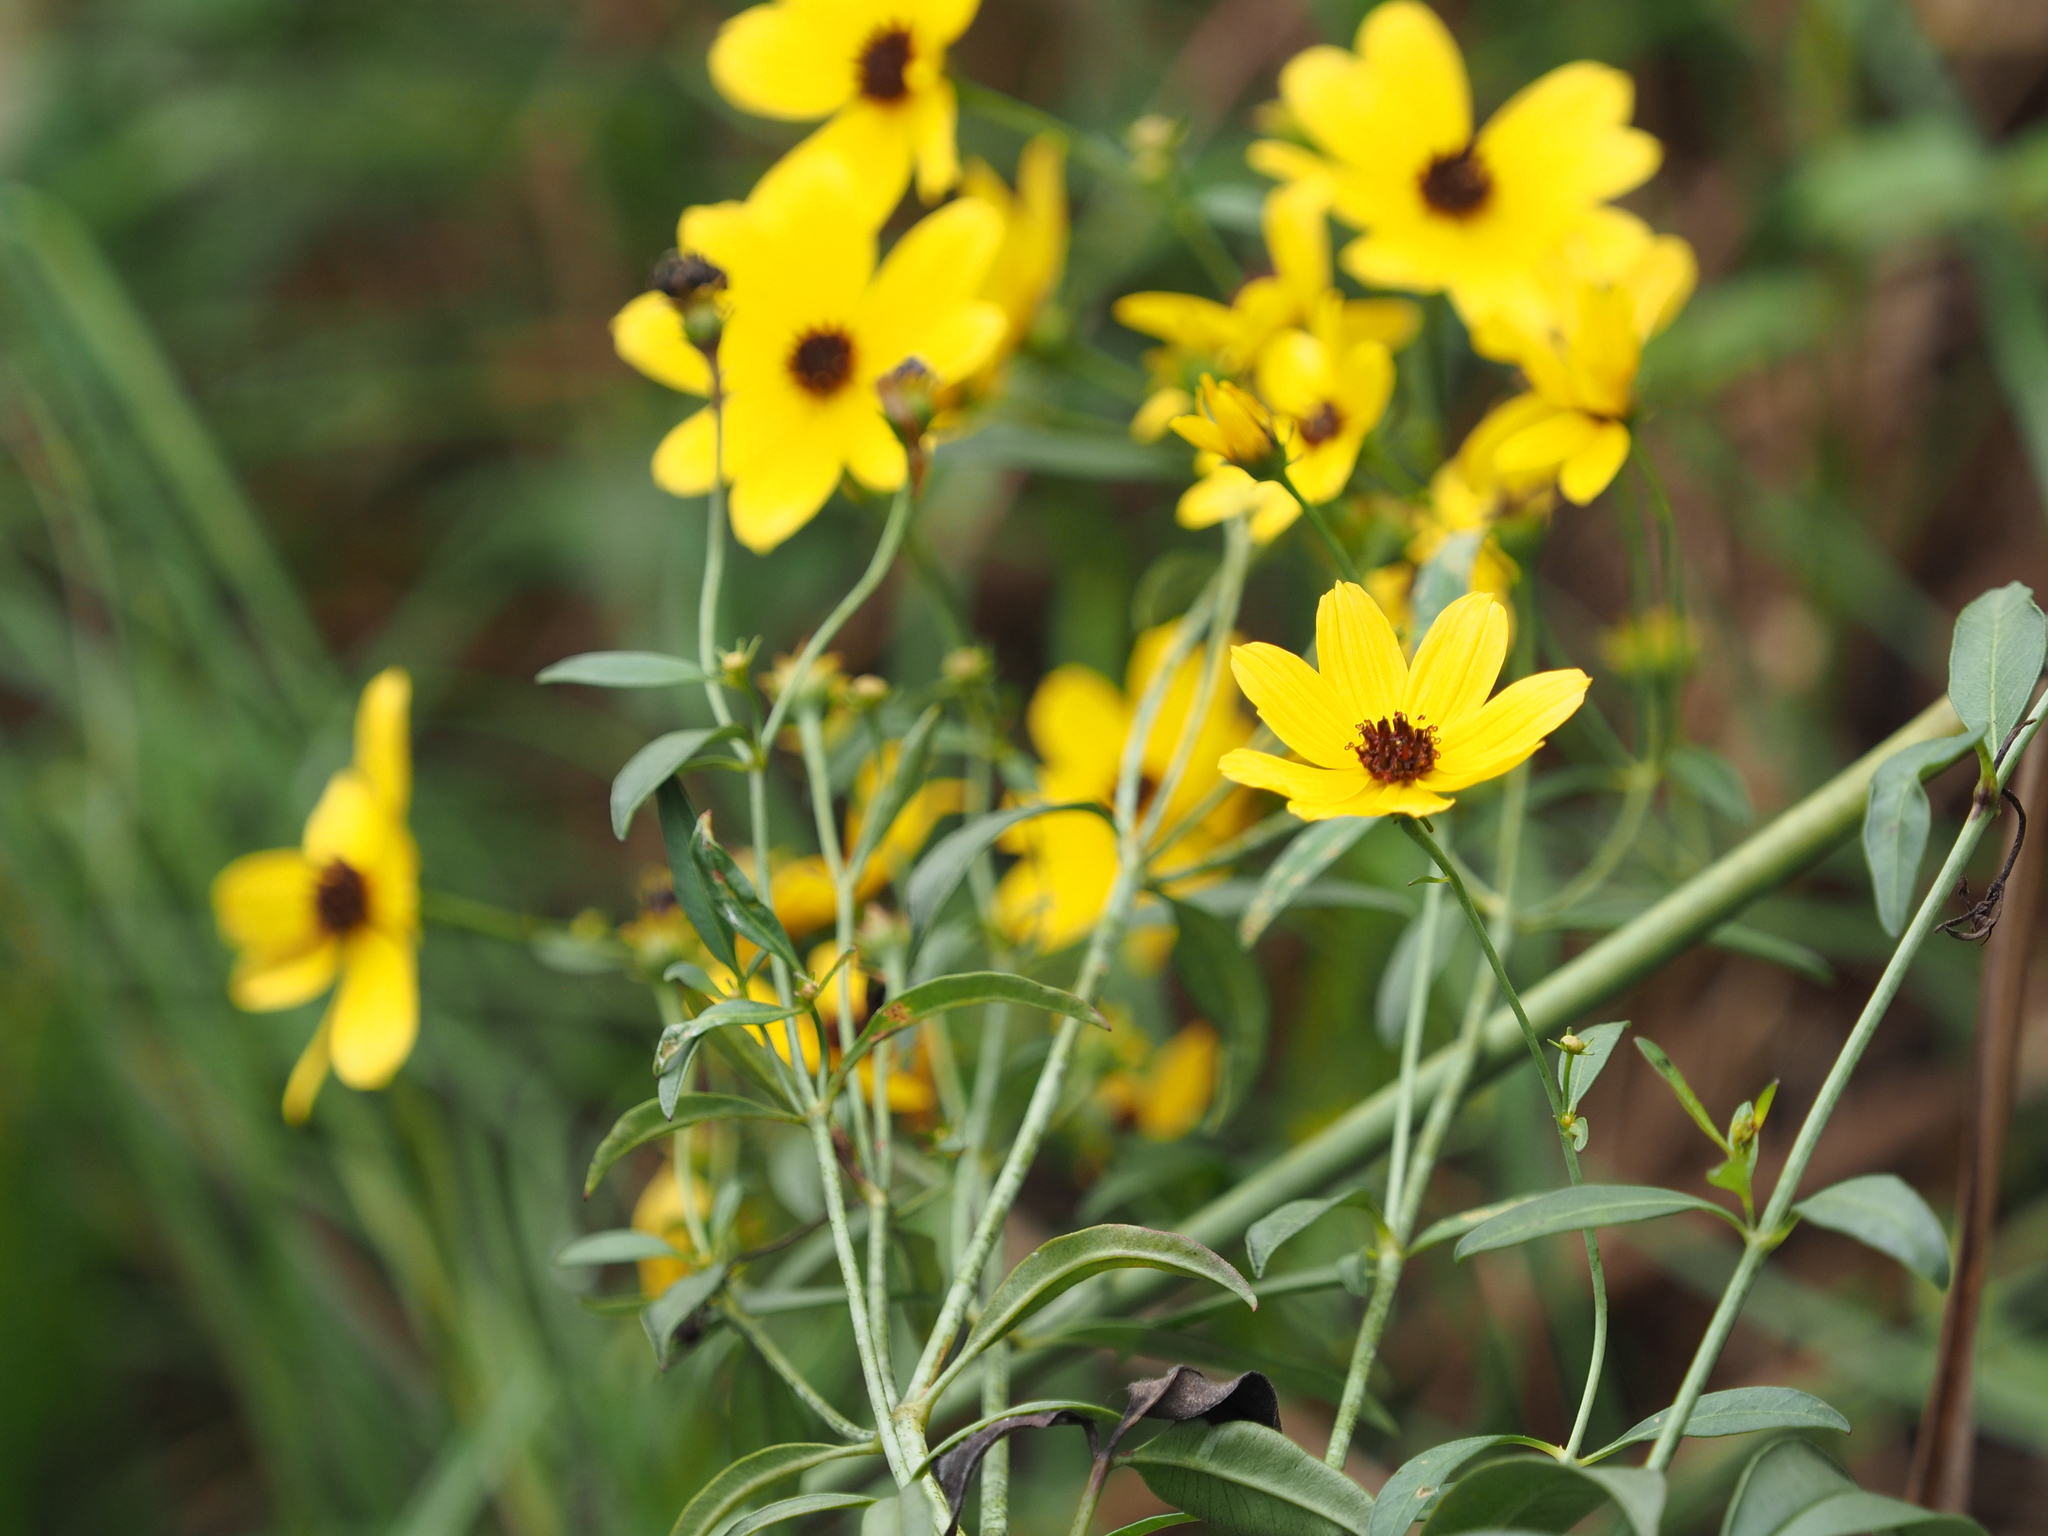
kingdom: Plantae
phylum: Tracheophyta
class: Magnoliopsida
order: Asterales
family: Asteraceae
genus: Coreopsis
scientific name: Coreopsis tripteris
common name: Tall coreopsis
